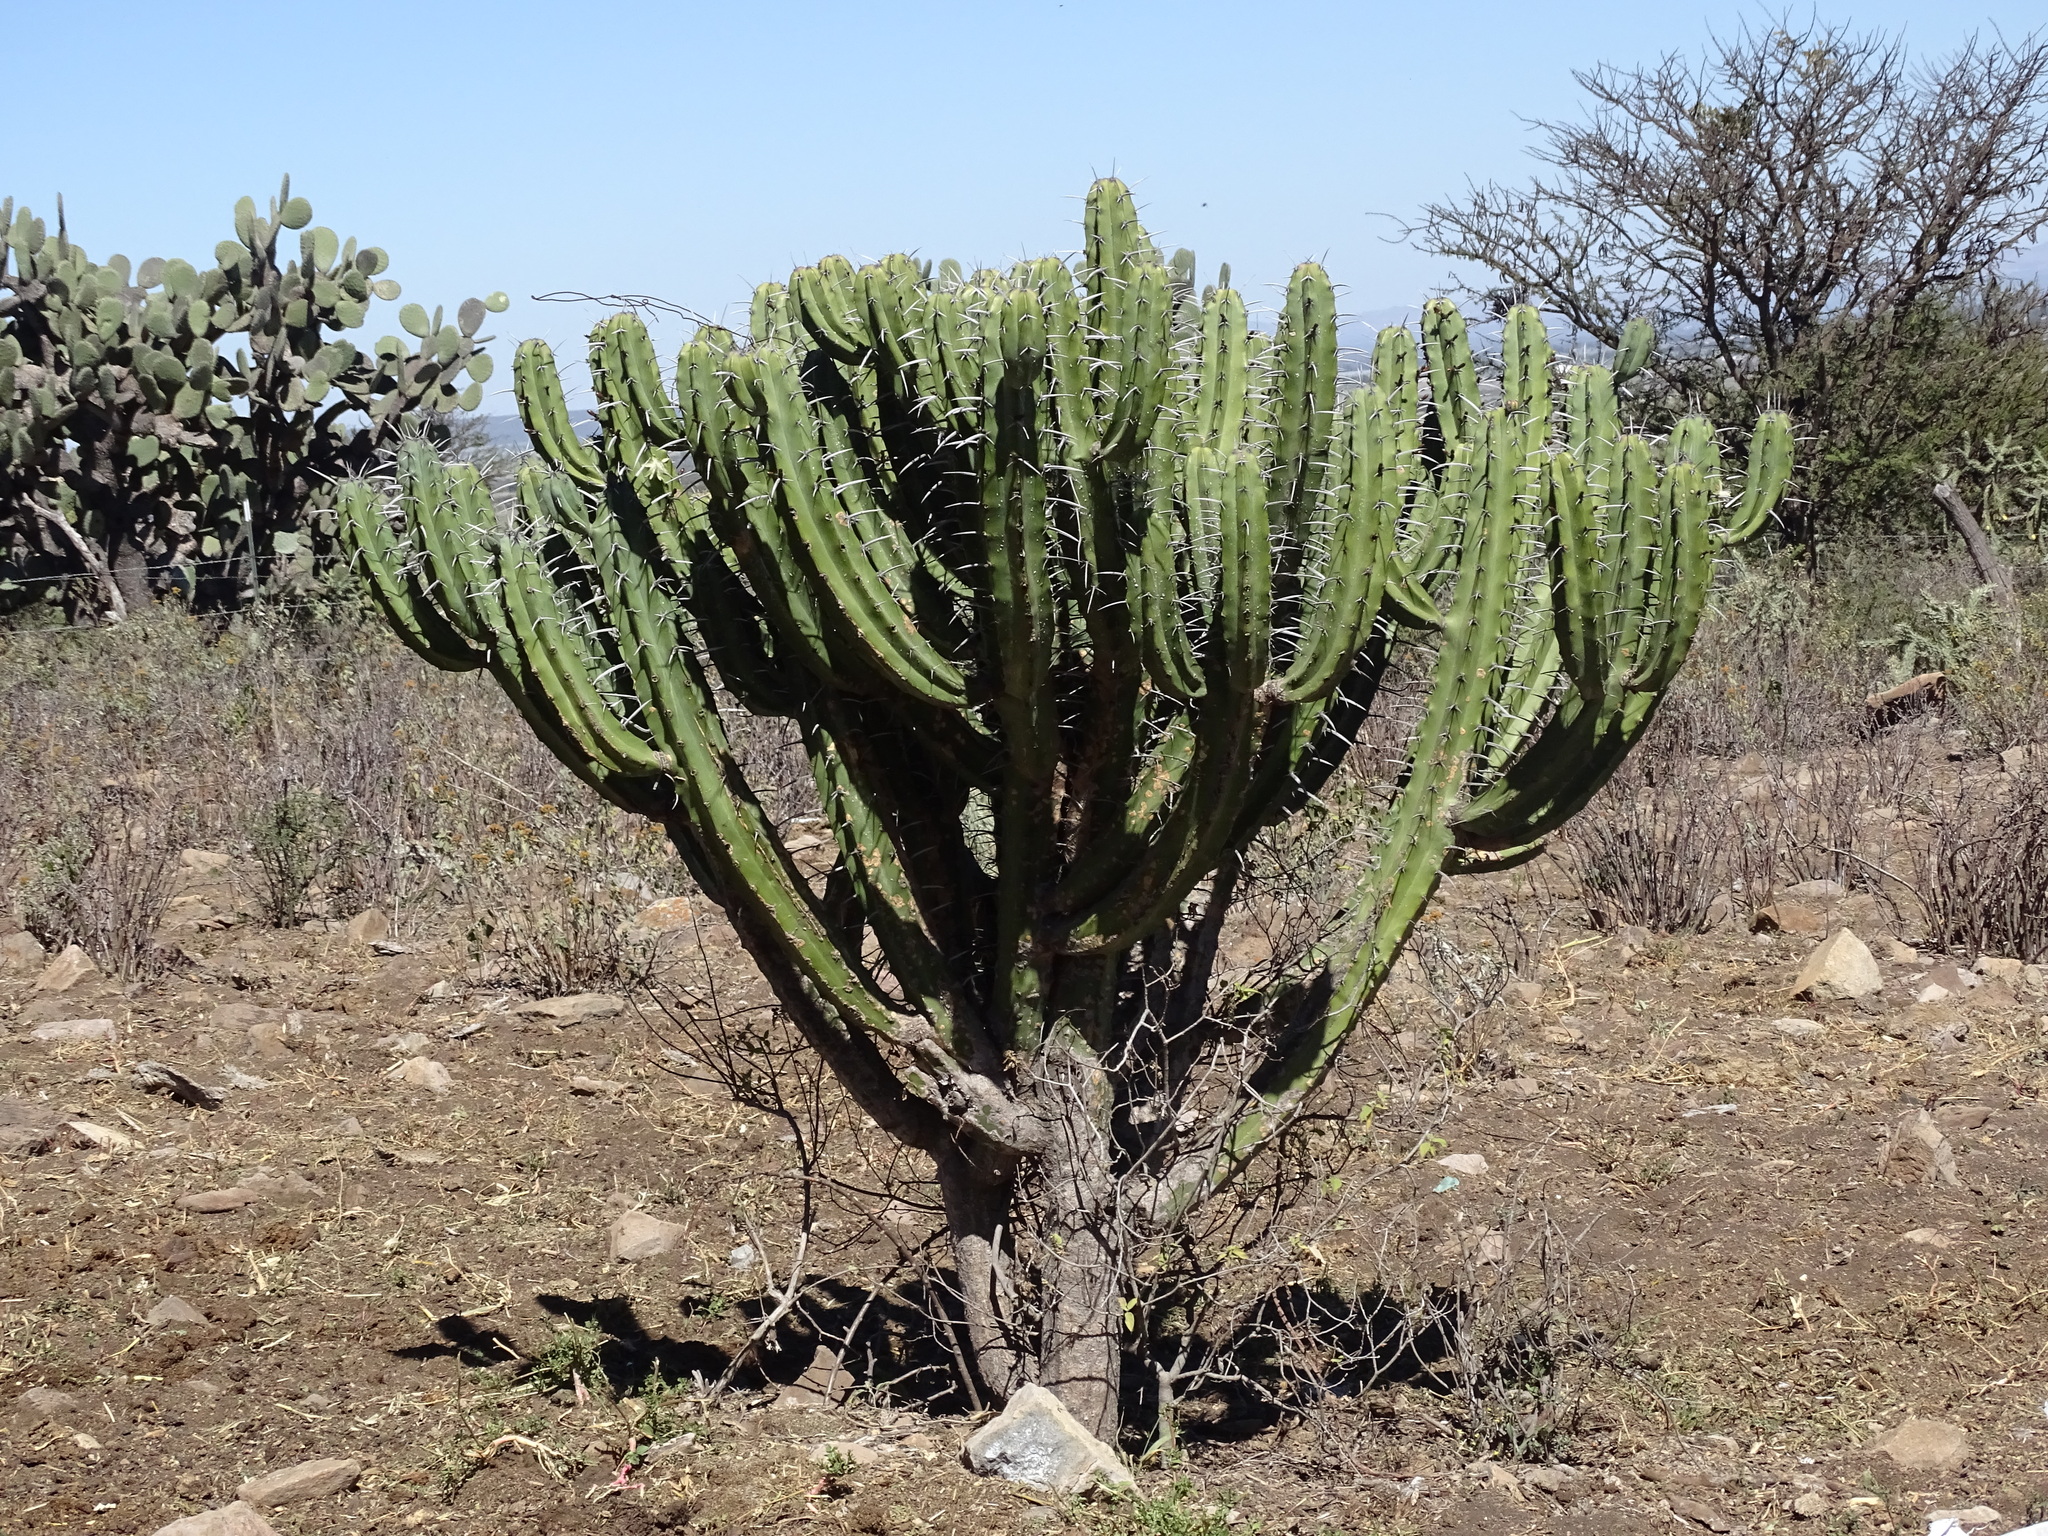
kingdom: Plantae
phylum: Tracheophyta
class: Magnoliopsida
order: Caryophyllales
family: Cactaceae
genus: Myrtillocactus
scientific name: Myrtillocactus geometrizans
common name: Bilberry cactus
